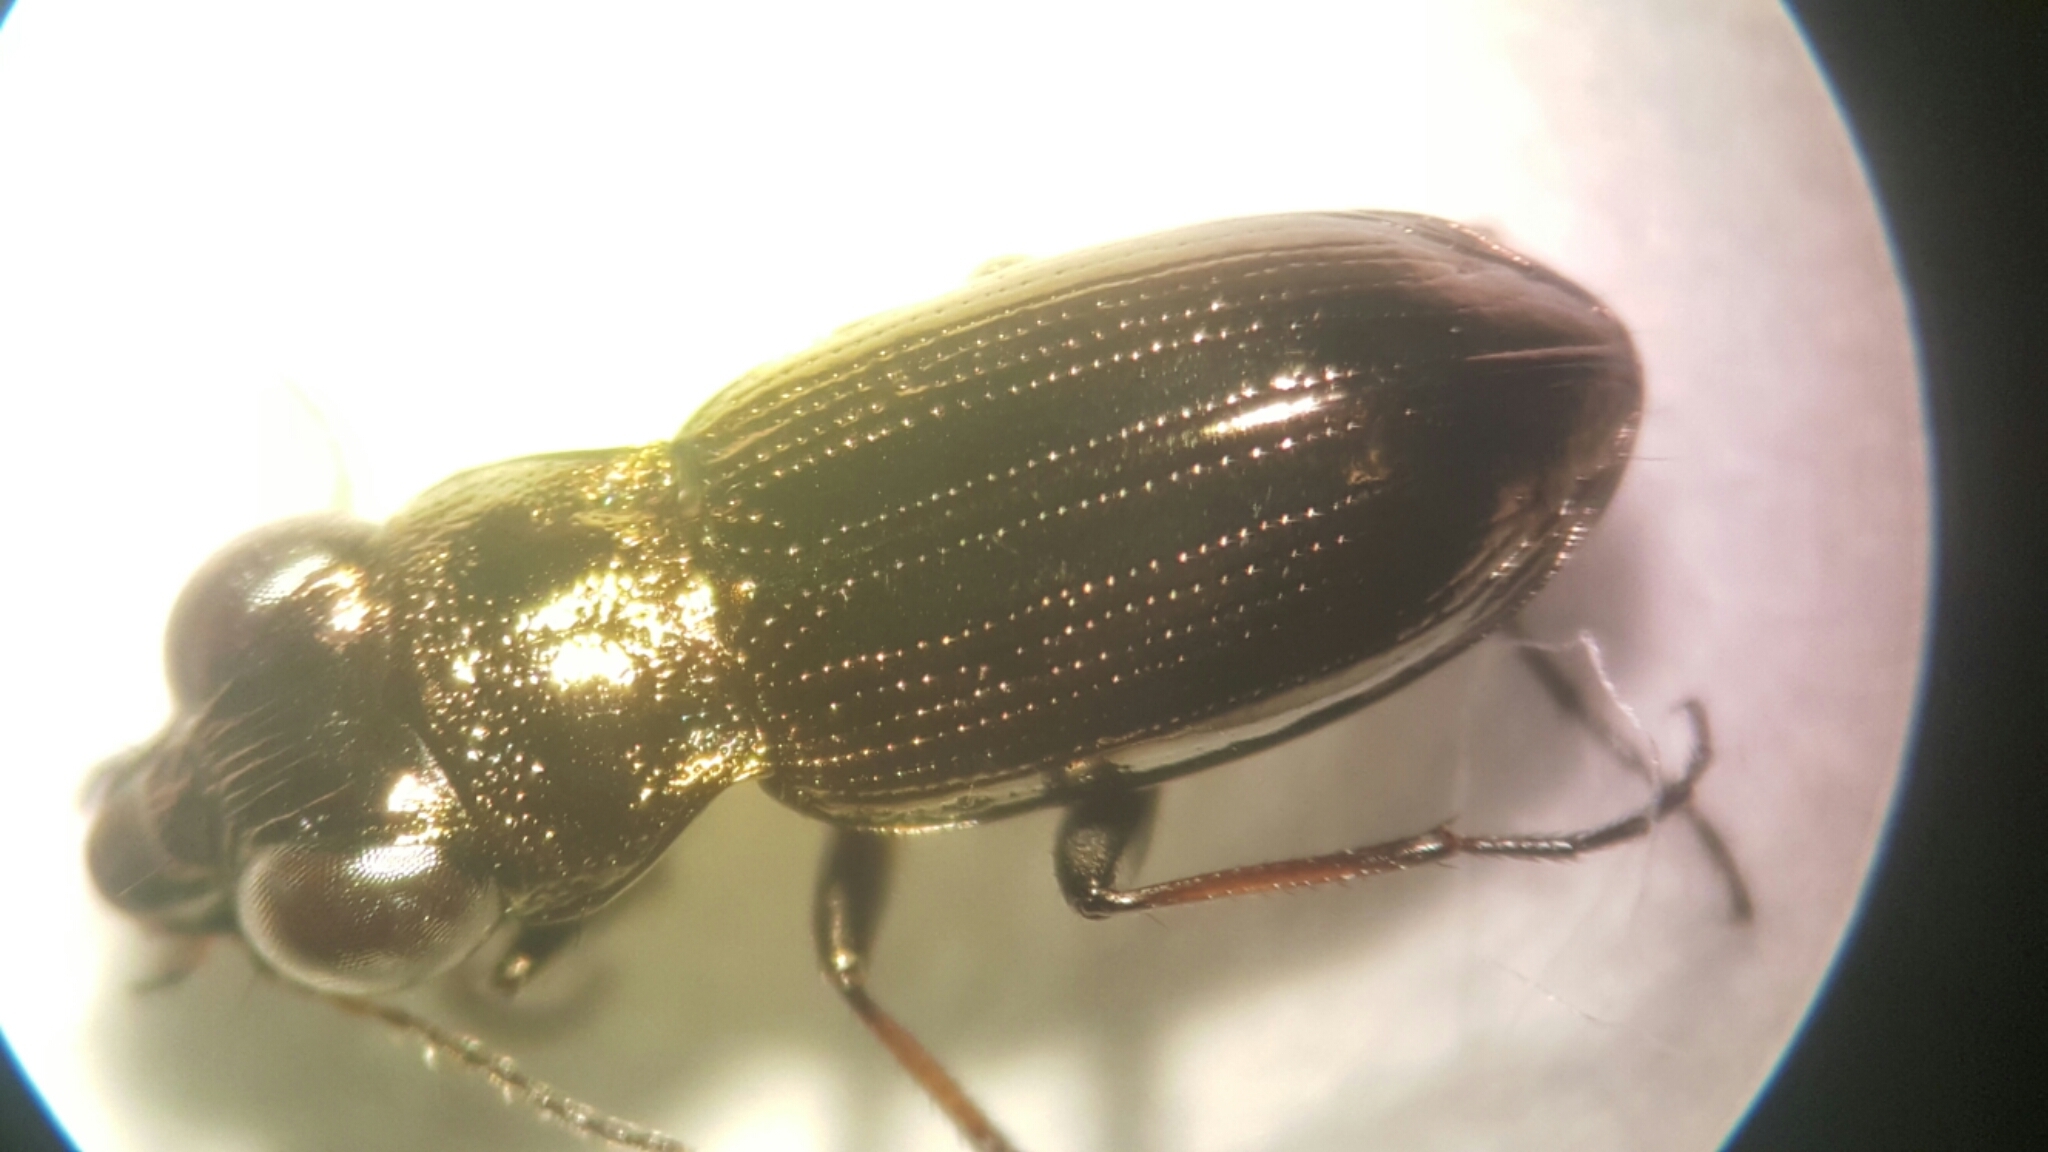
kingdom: Animalia
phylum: Arthropoda
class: Insecta
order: Coleoptera
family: Carabidae
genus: Notiophilus
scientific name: Notiophilus germinyi
